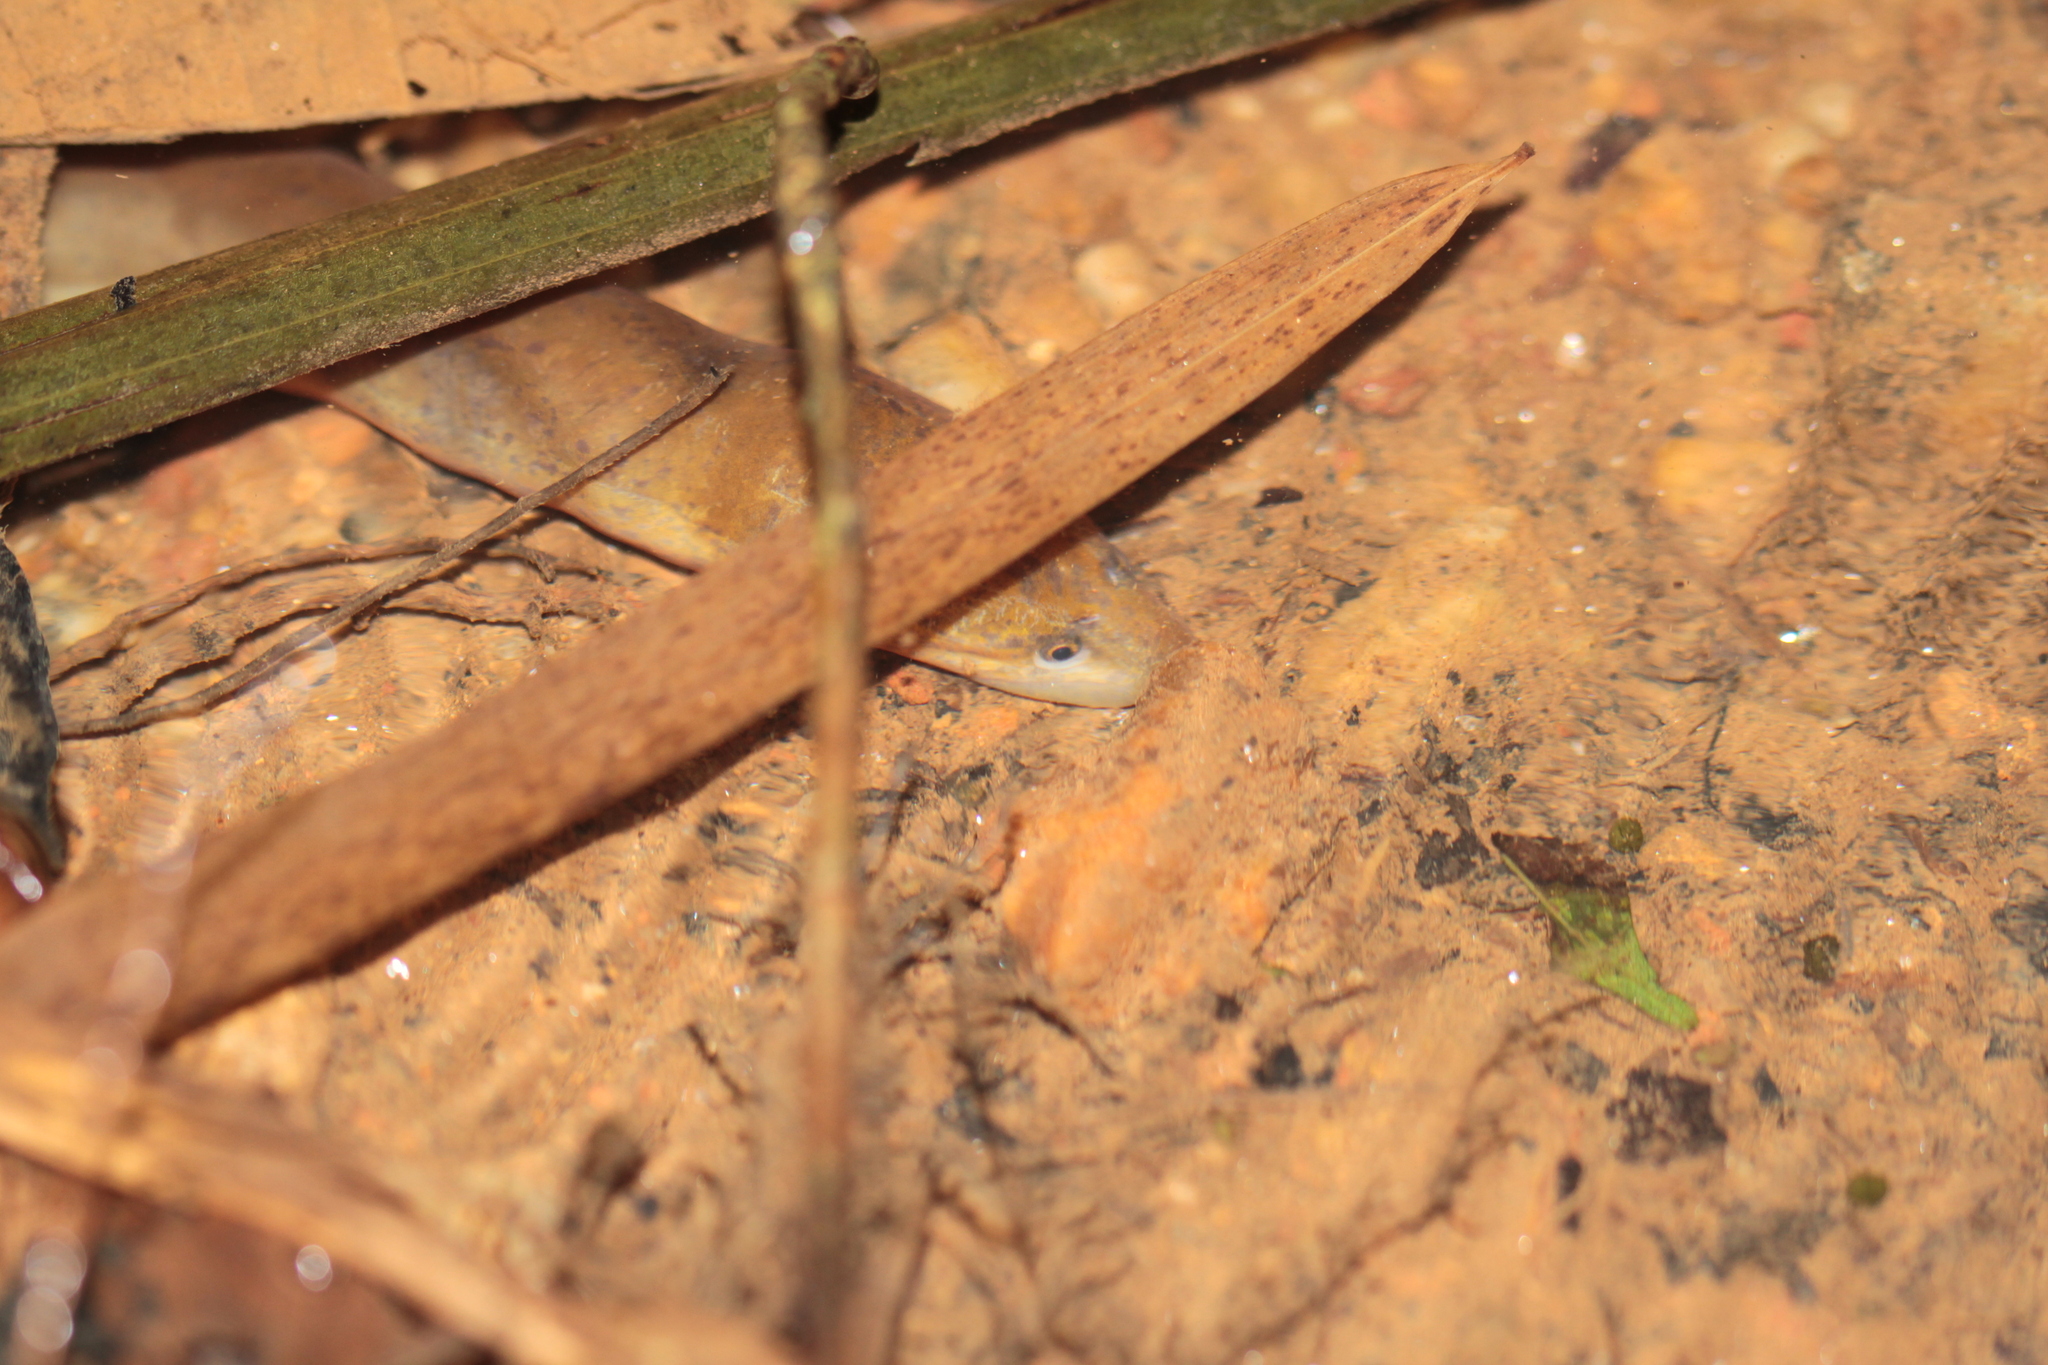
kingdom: Animalia
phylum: Chordata
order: Synbranchiformes
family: Synbranchidae
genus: Synbranchus
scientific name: Synbranchus marmoratus
